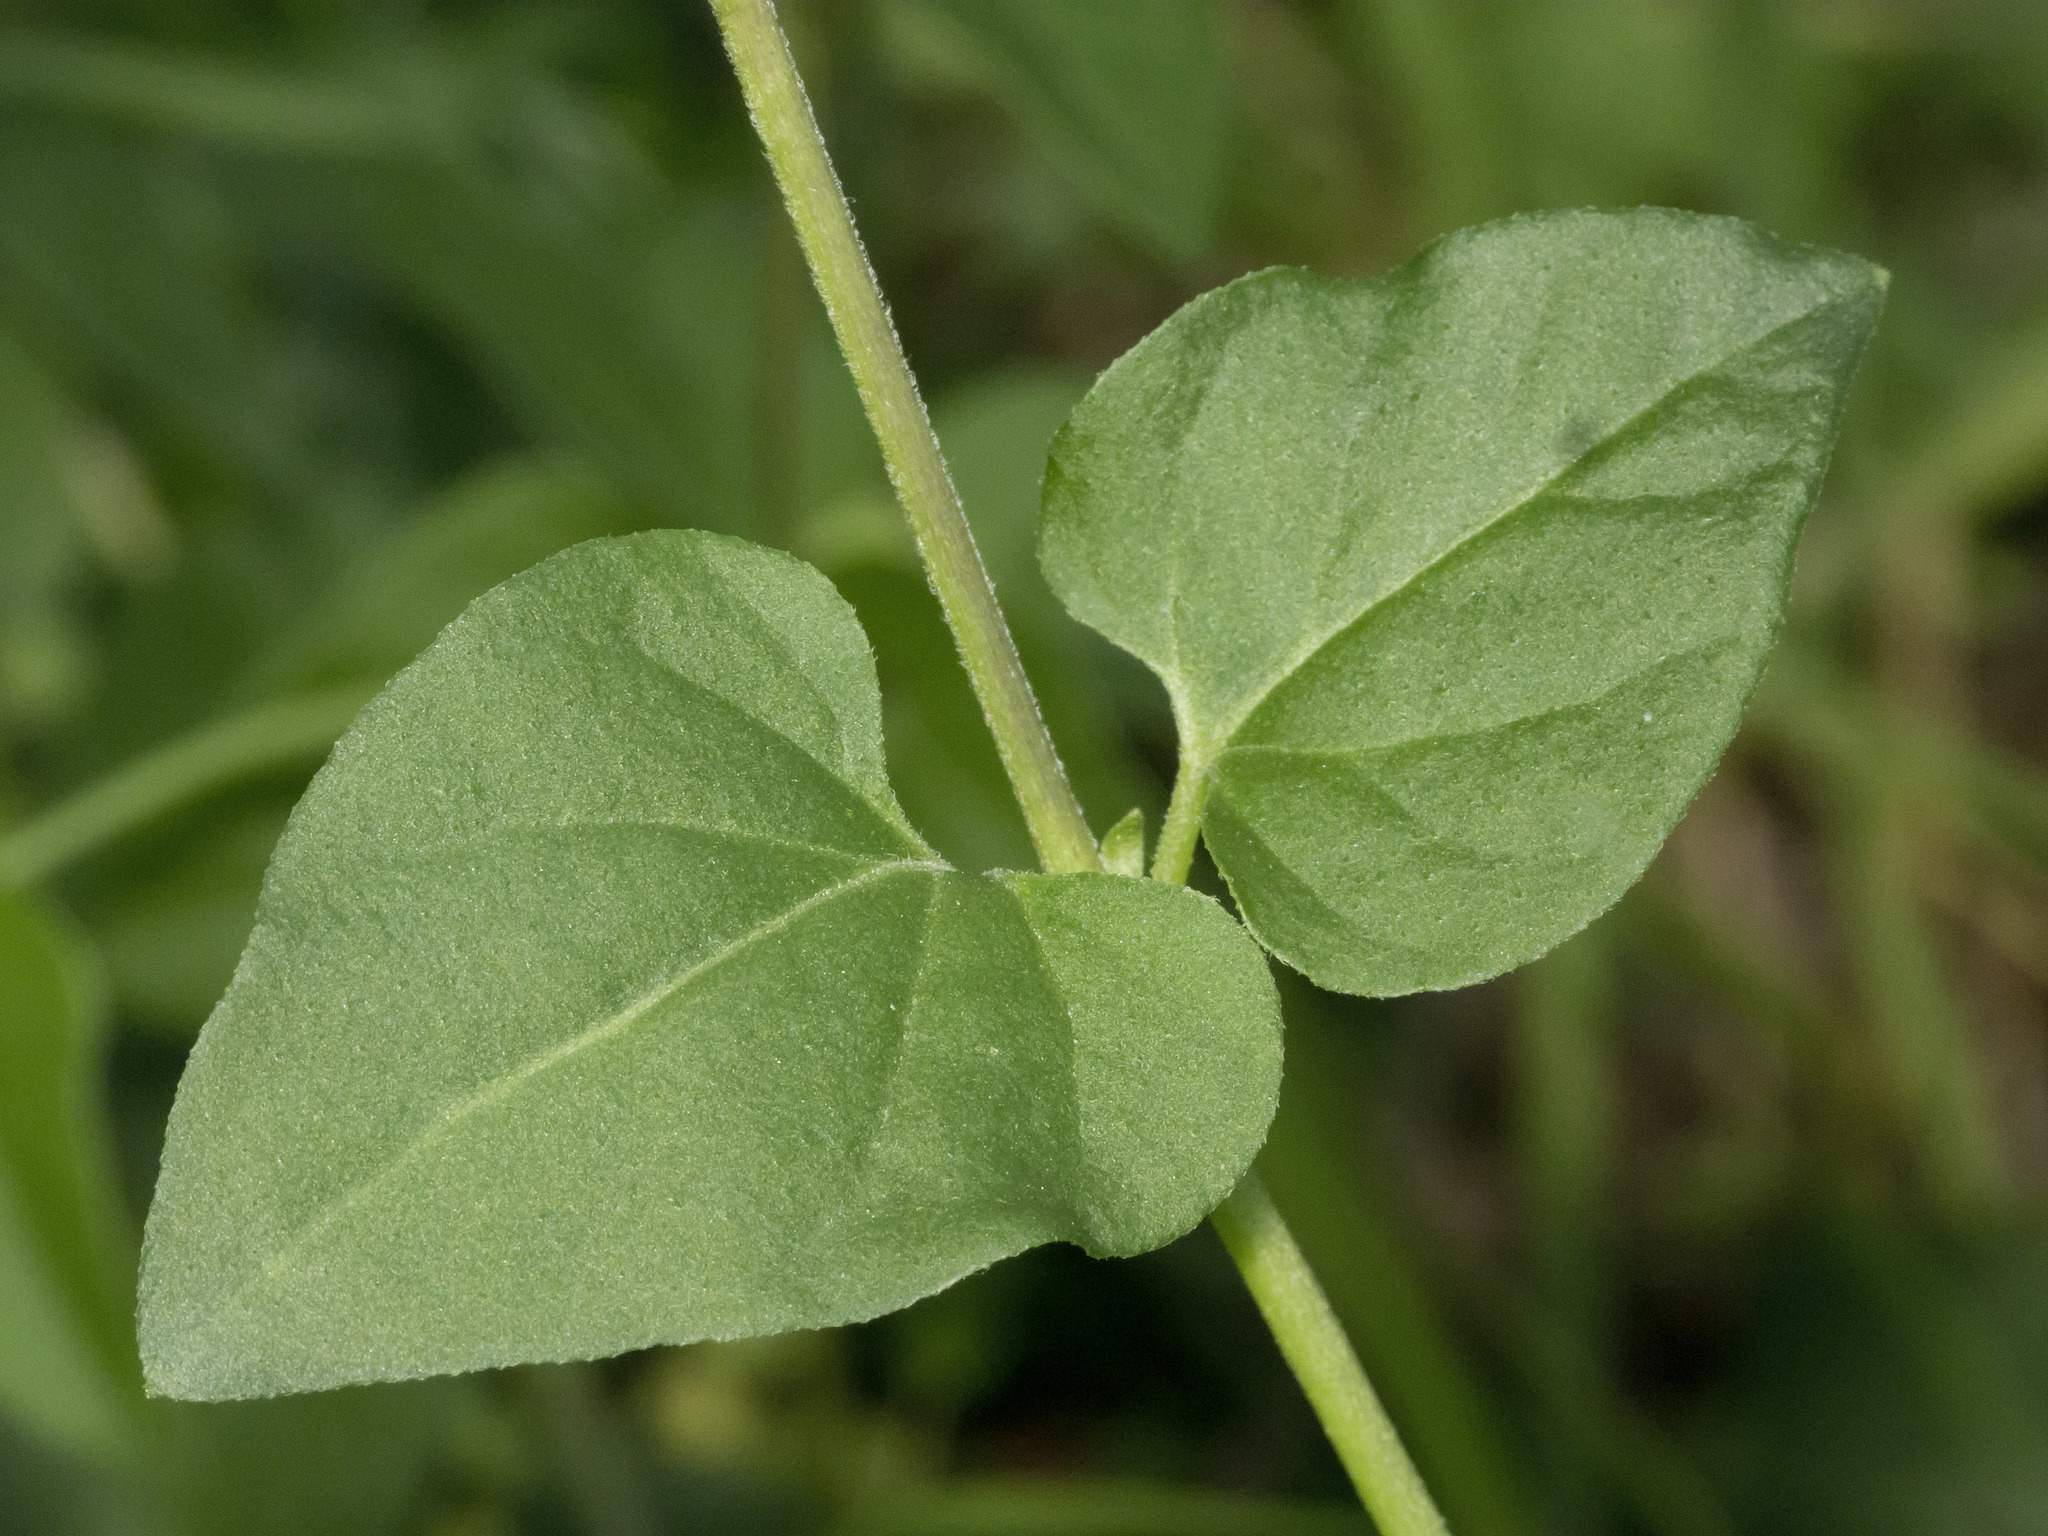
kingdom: Plantae
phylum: Tracheophyta
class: Magnoliopsida
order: Caryophyllales
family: Nyctaginaceae
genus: Mirabilis
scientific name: Mirabilis violacea
